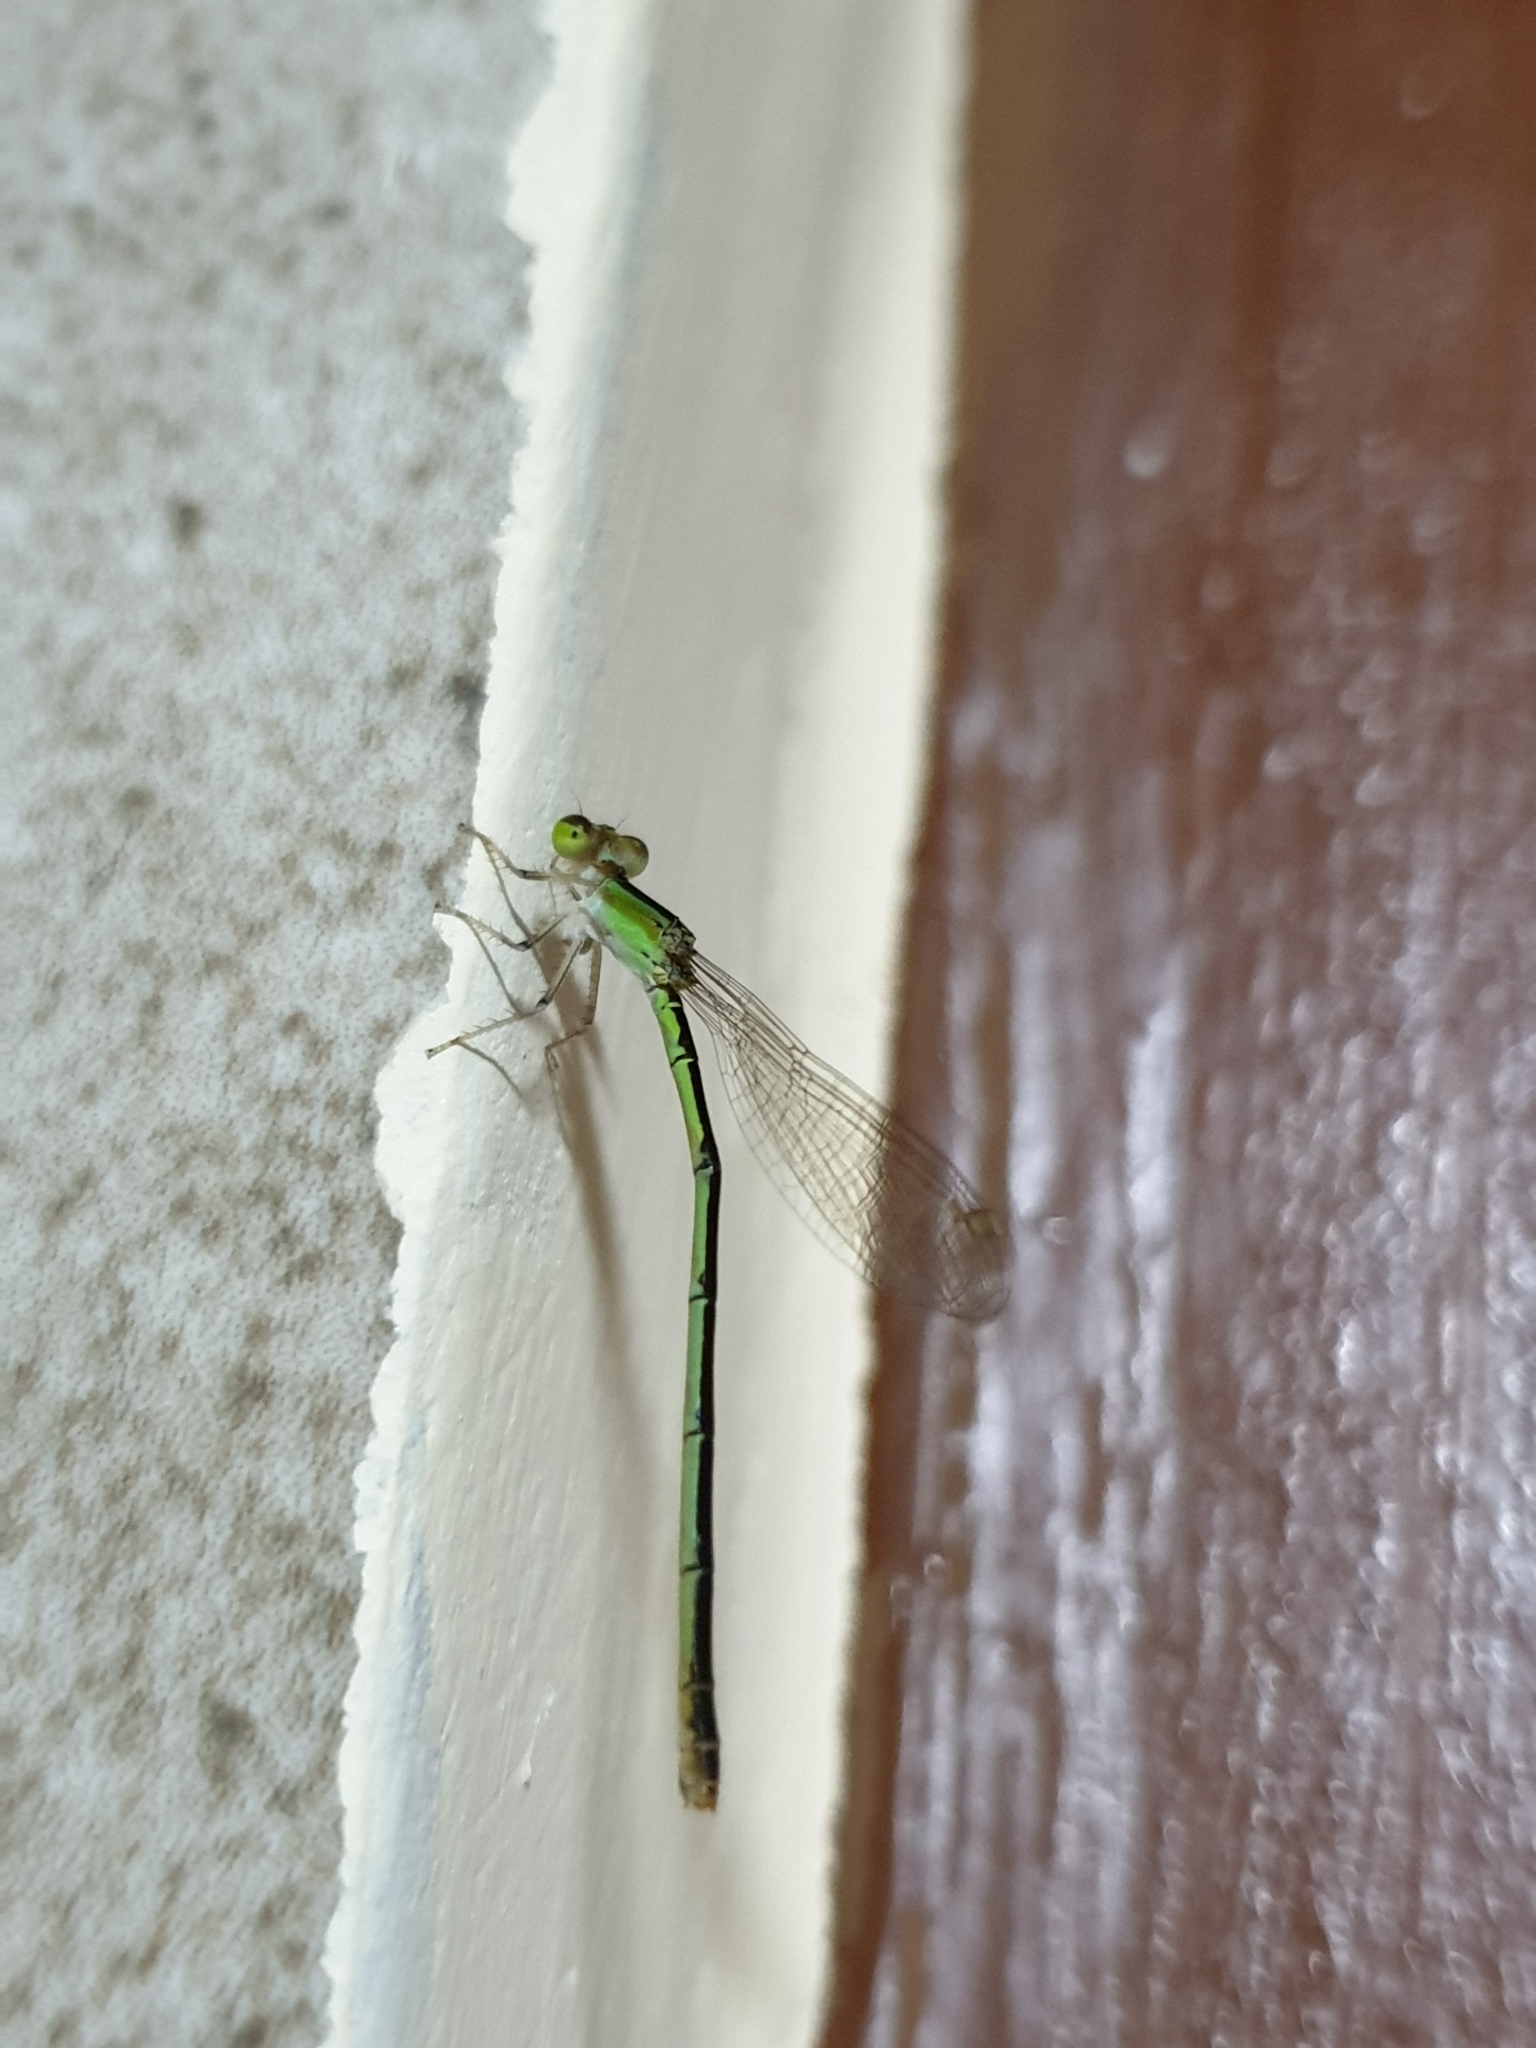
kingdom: Animalia
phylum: Arthropoda
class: Insecta
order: Odonata
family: Coenagrionidae
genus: Agriocnemis
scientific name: Agriocnemis pygmaea
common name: Pygmy wisp
